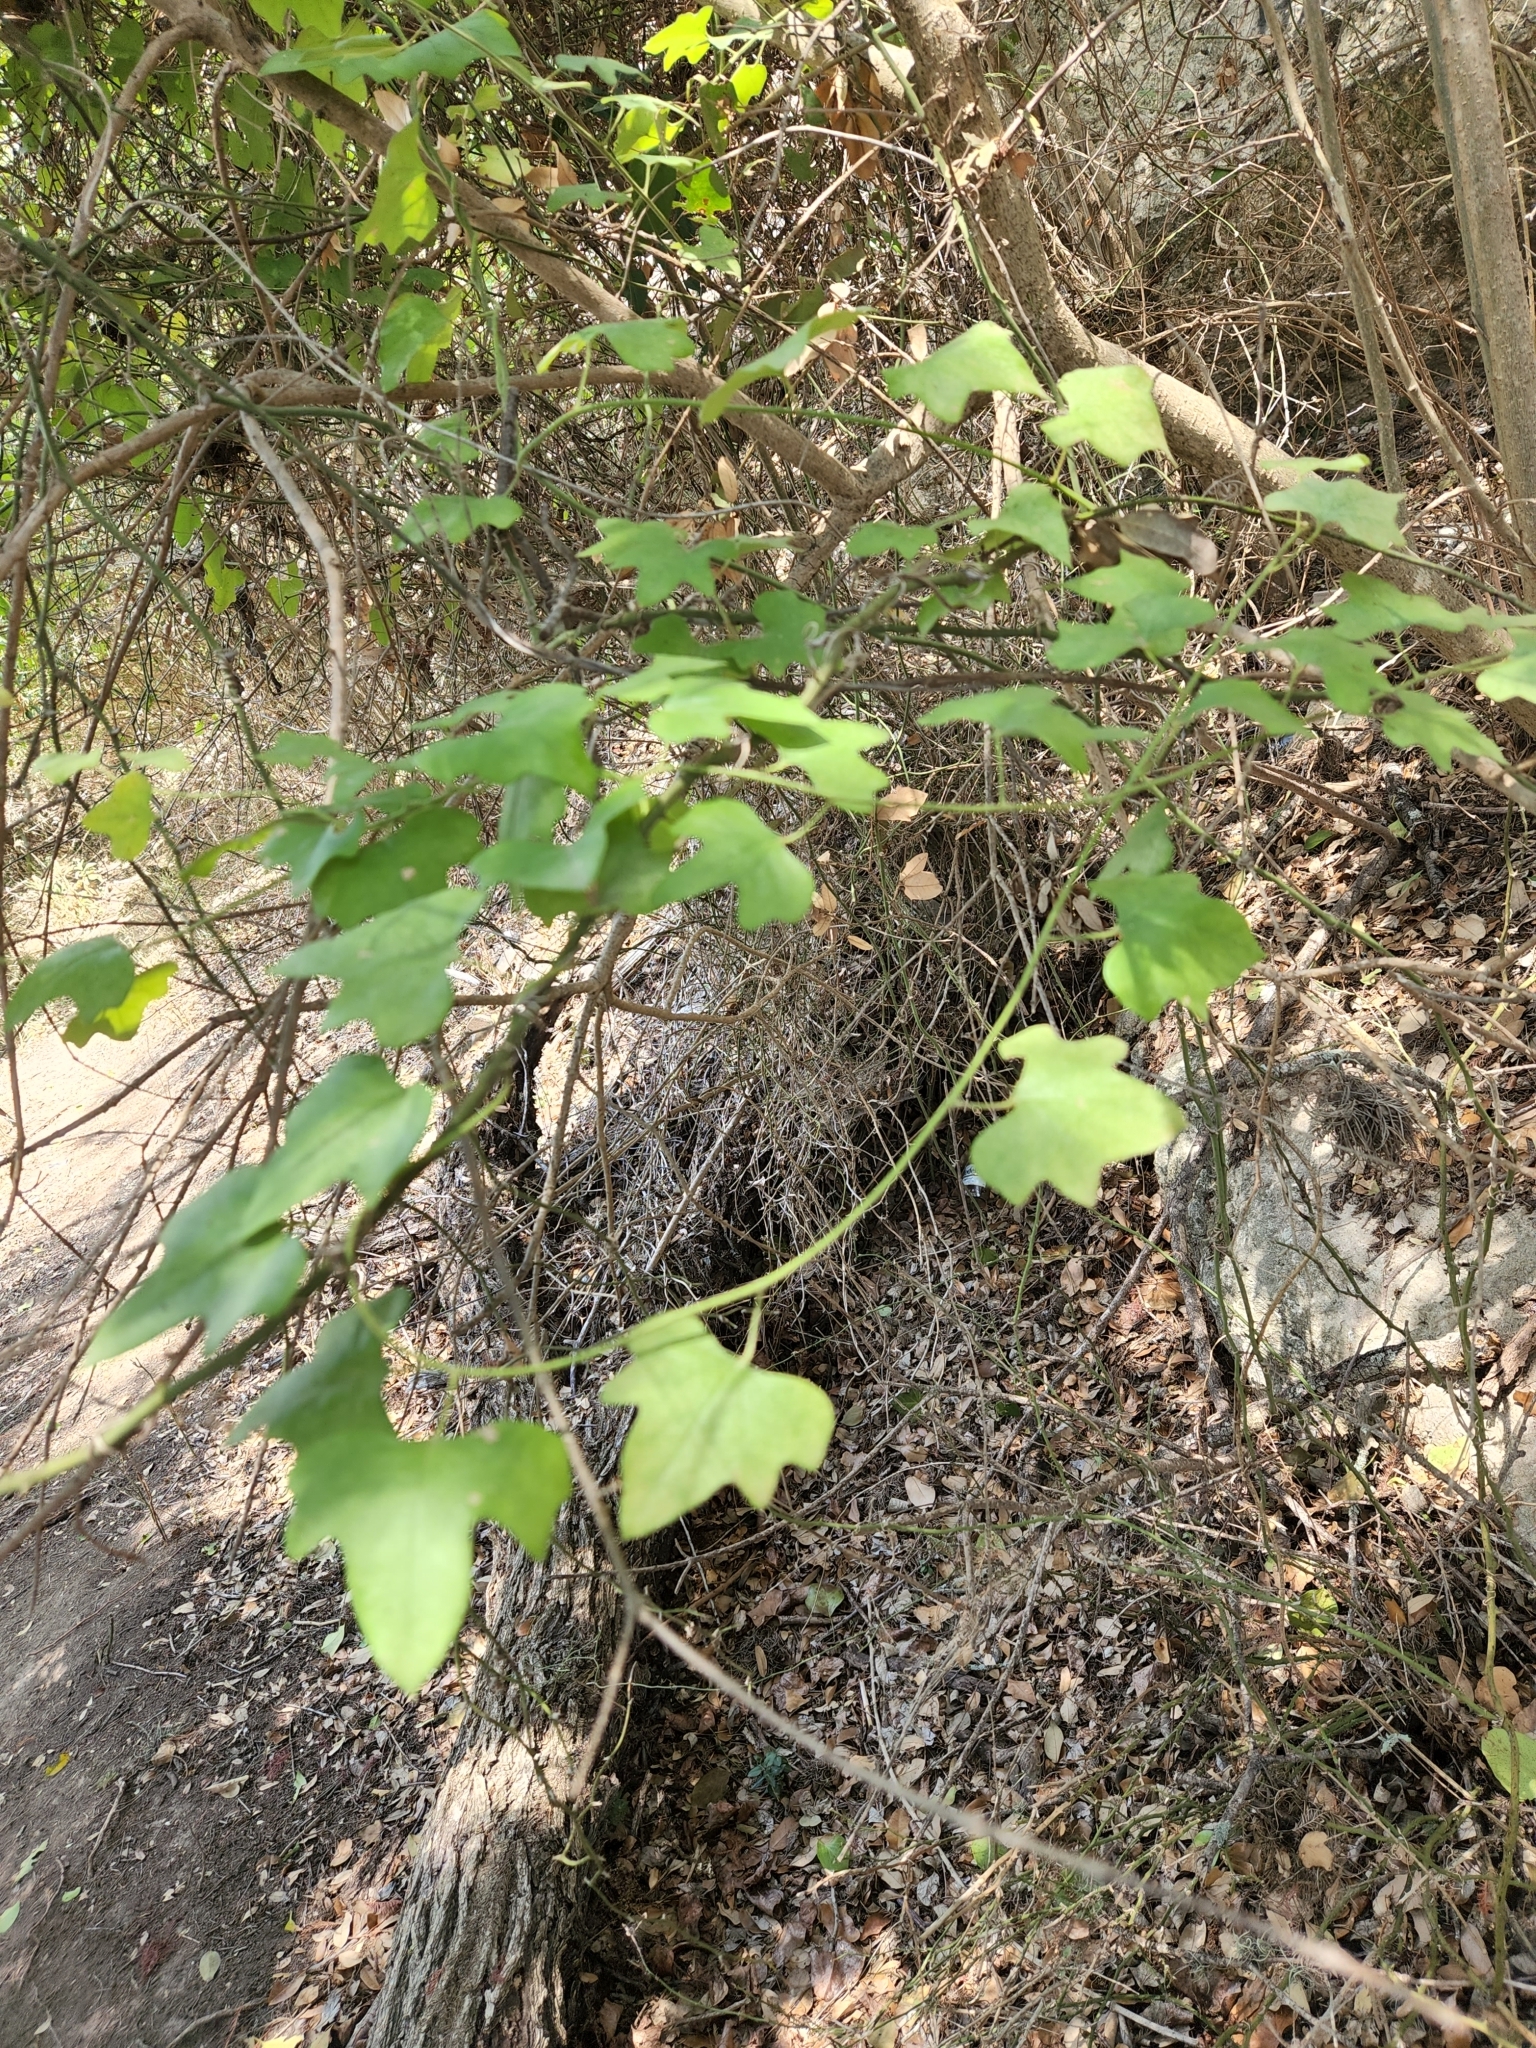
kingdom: Plantae
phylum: Tracheophyta
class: Magnoliopsida
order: Ranunculales
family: Menispermaceae
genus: Cocculus
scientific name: Cocculus carolinus
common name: Carolina moonseed
